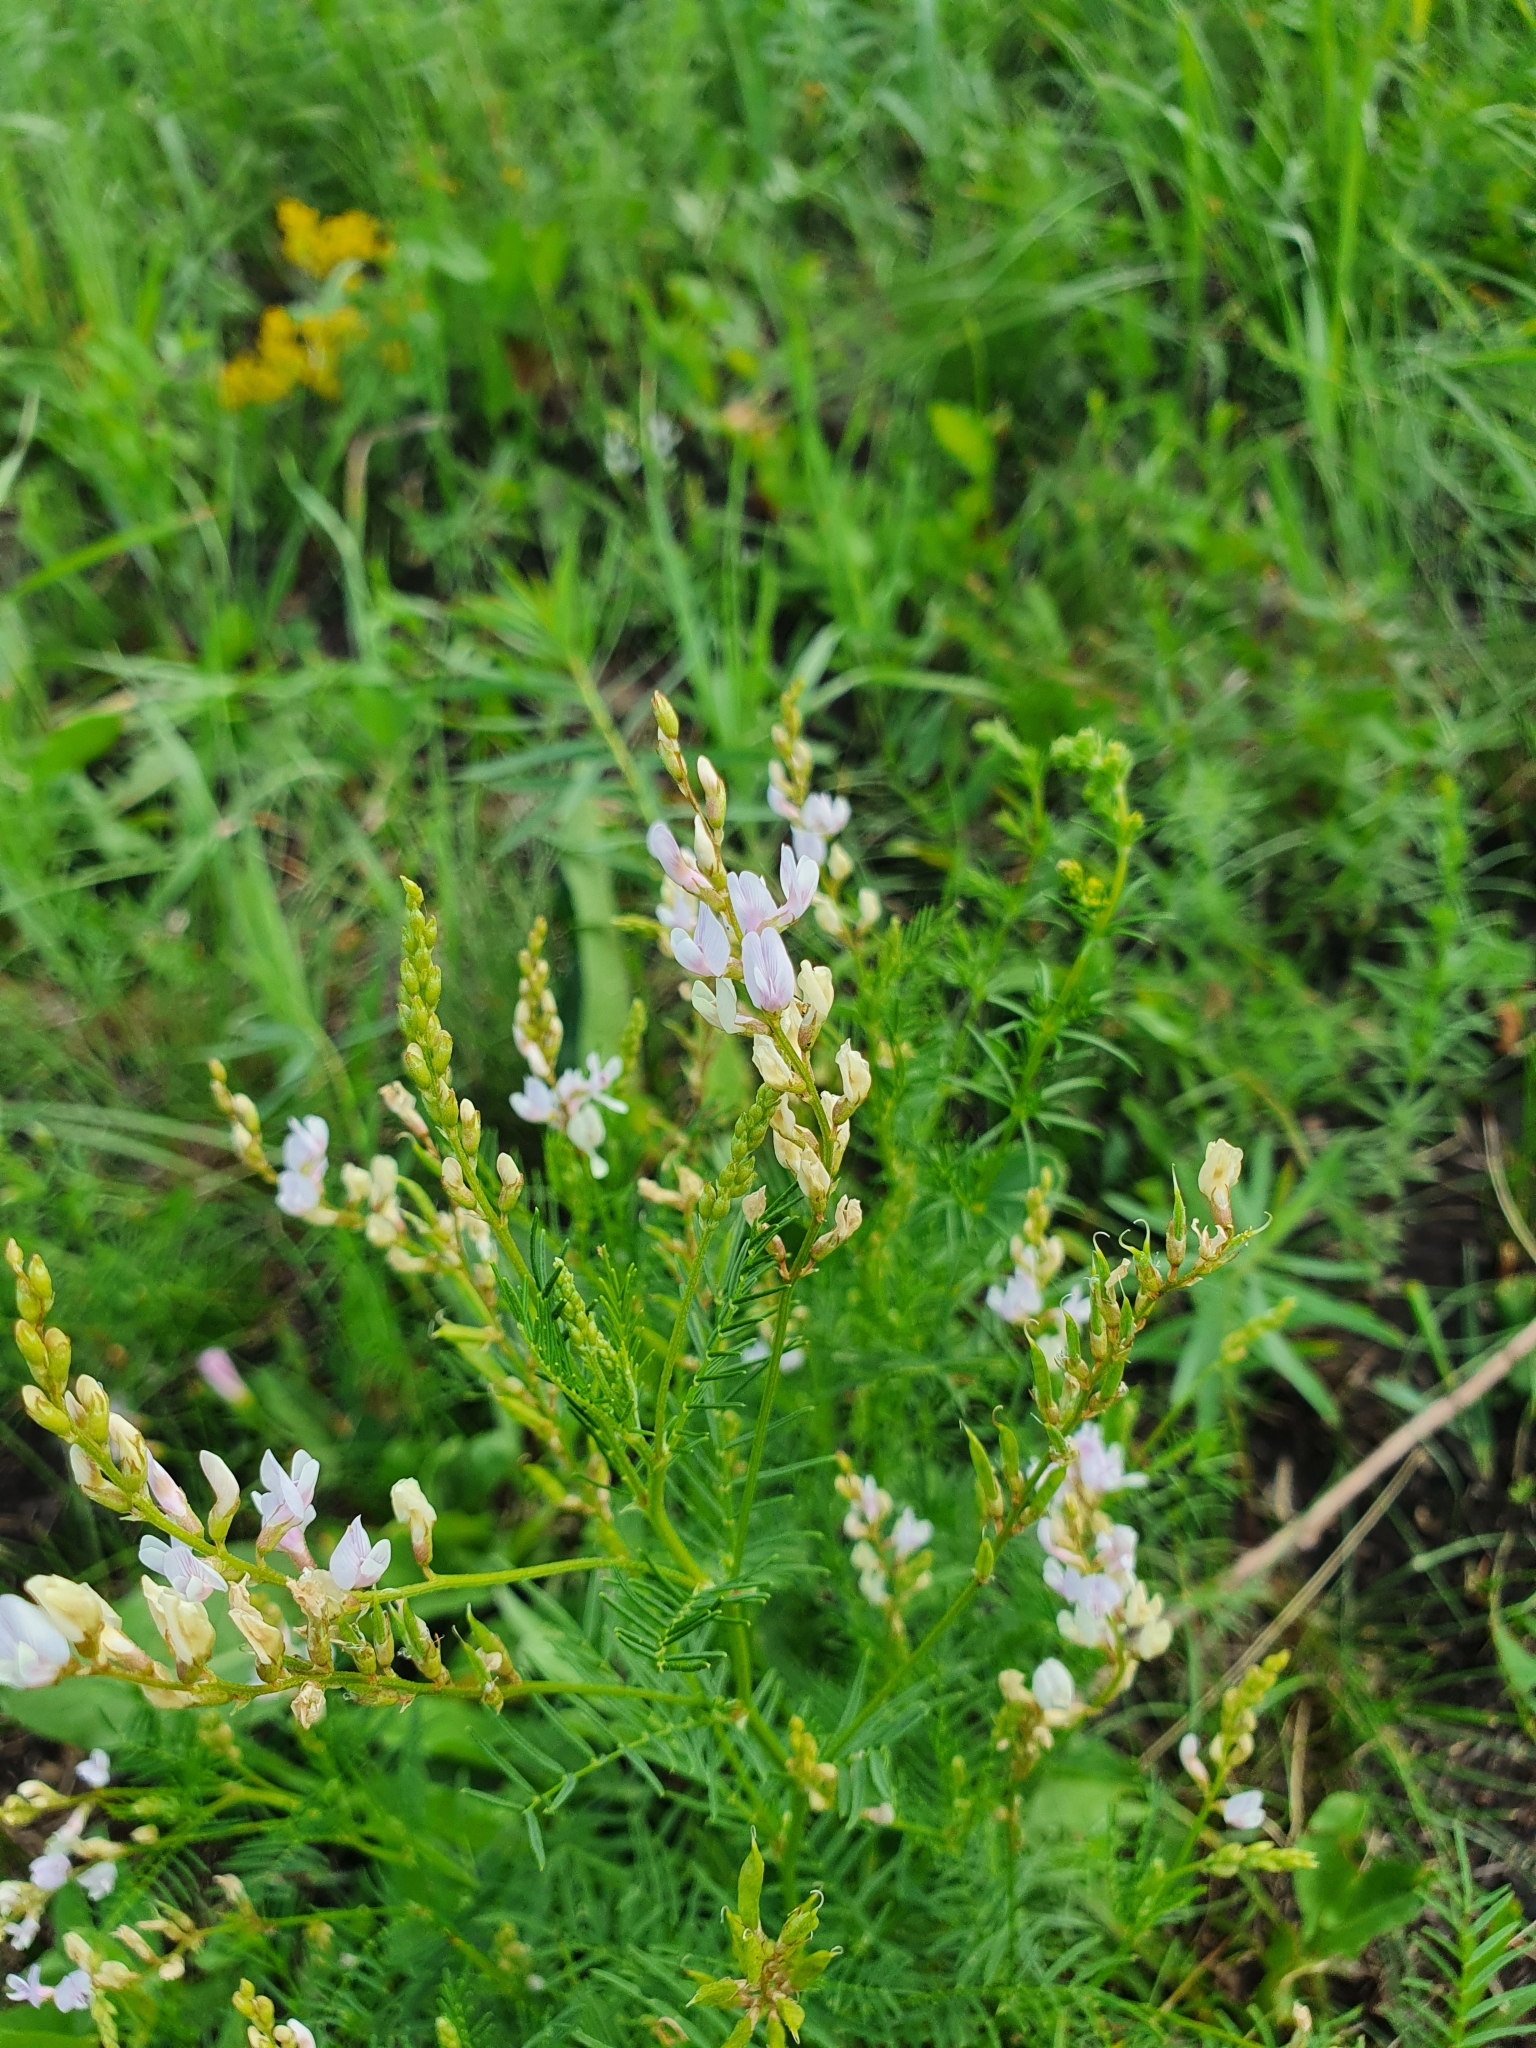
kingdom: Plantae
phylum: Tracheophyta
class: Magnoliopsida
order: Fabales
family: Fabaceae
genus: Astragalus
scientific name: Astragalus sulcatus
